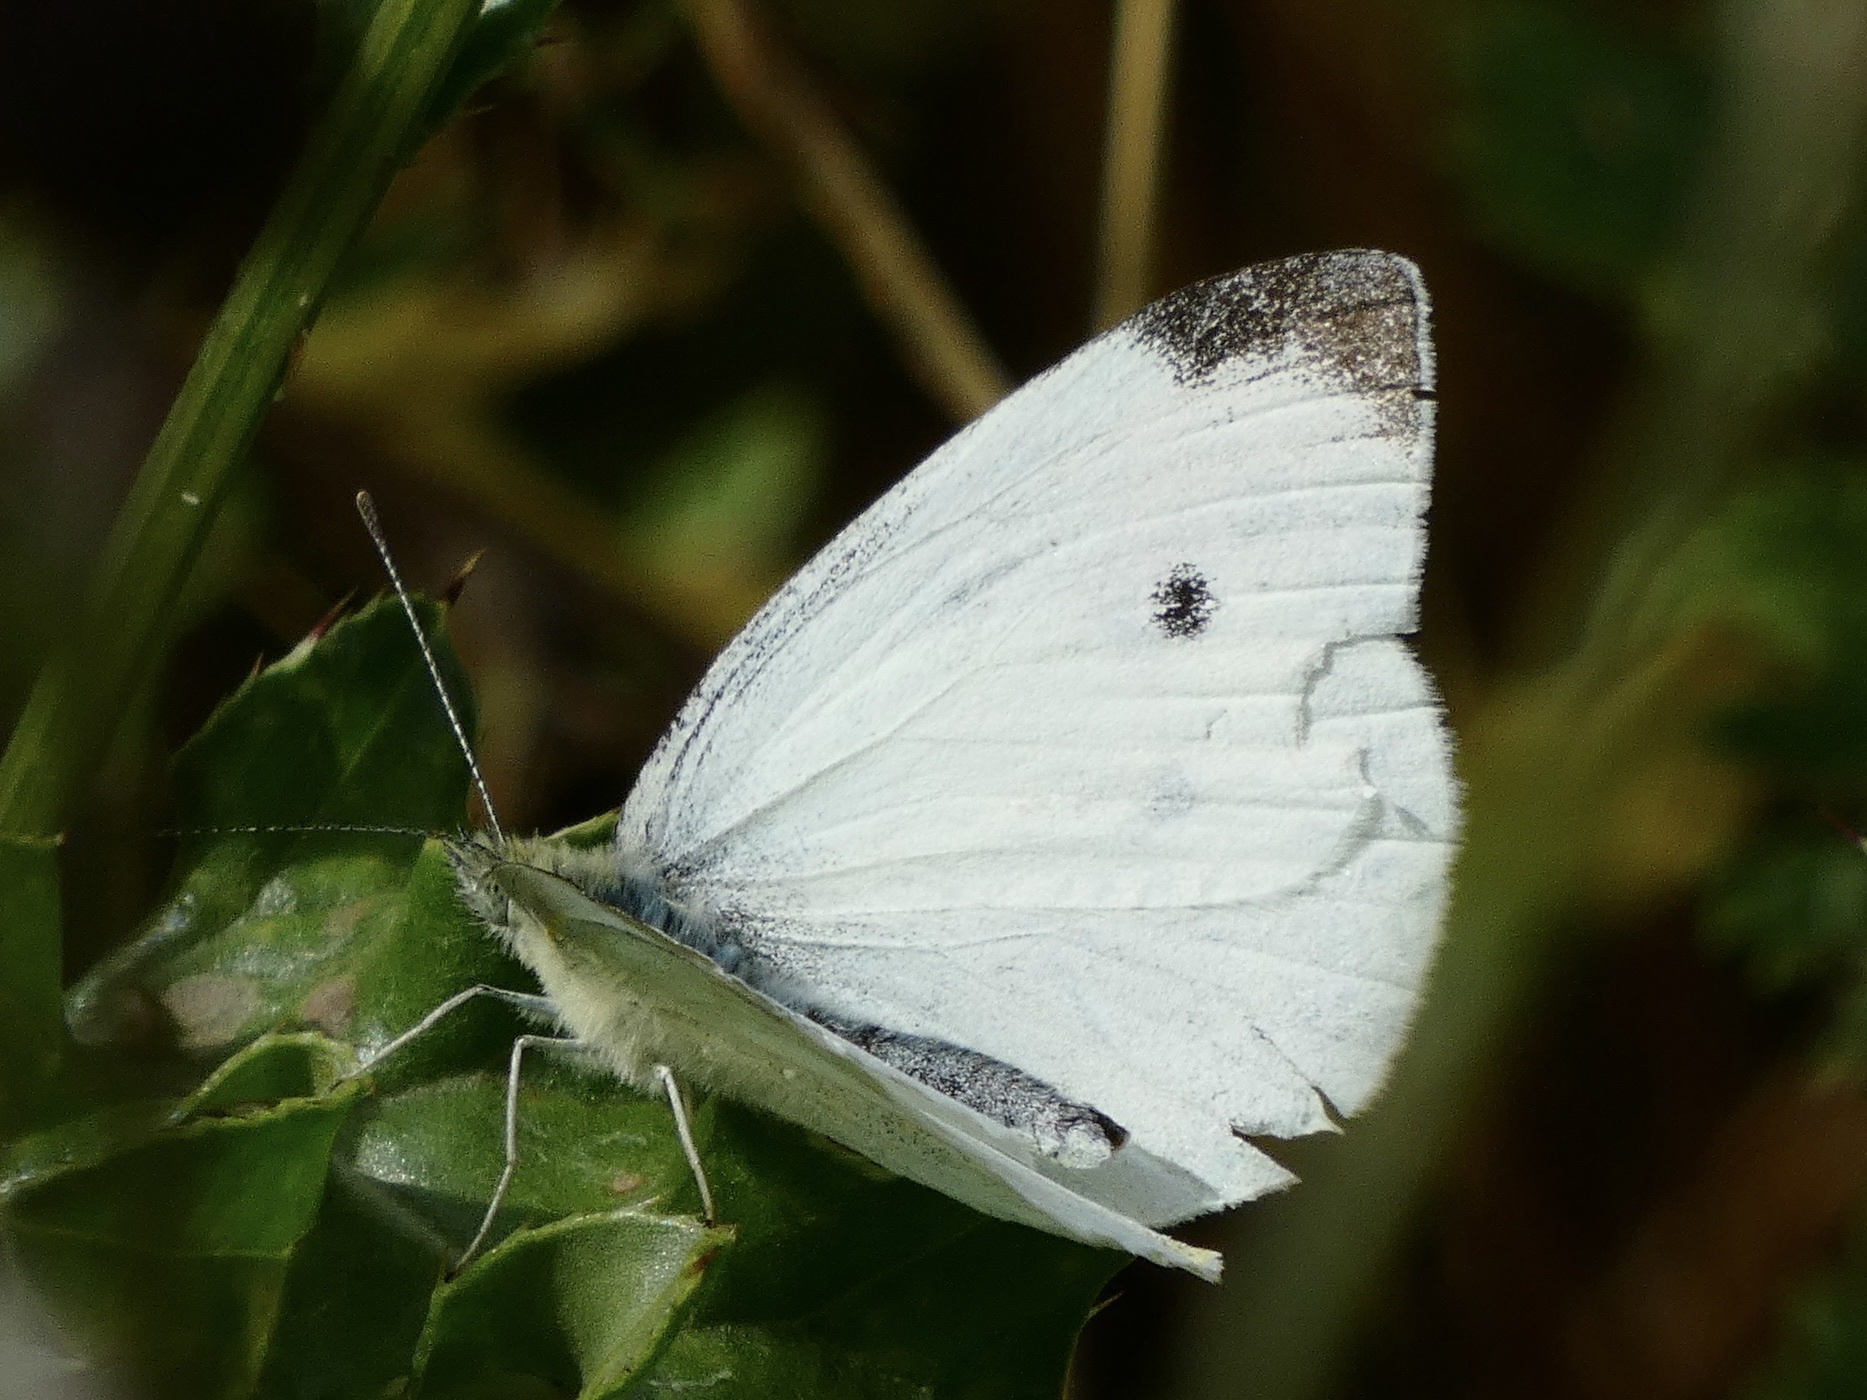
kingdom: Animalia
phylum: Arthropoda
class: Insecta
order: Lepidoptera
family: Pieridae
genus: Pieris
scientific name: Pieris rapae
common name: Small white
